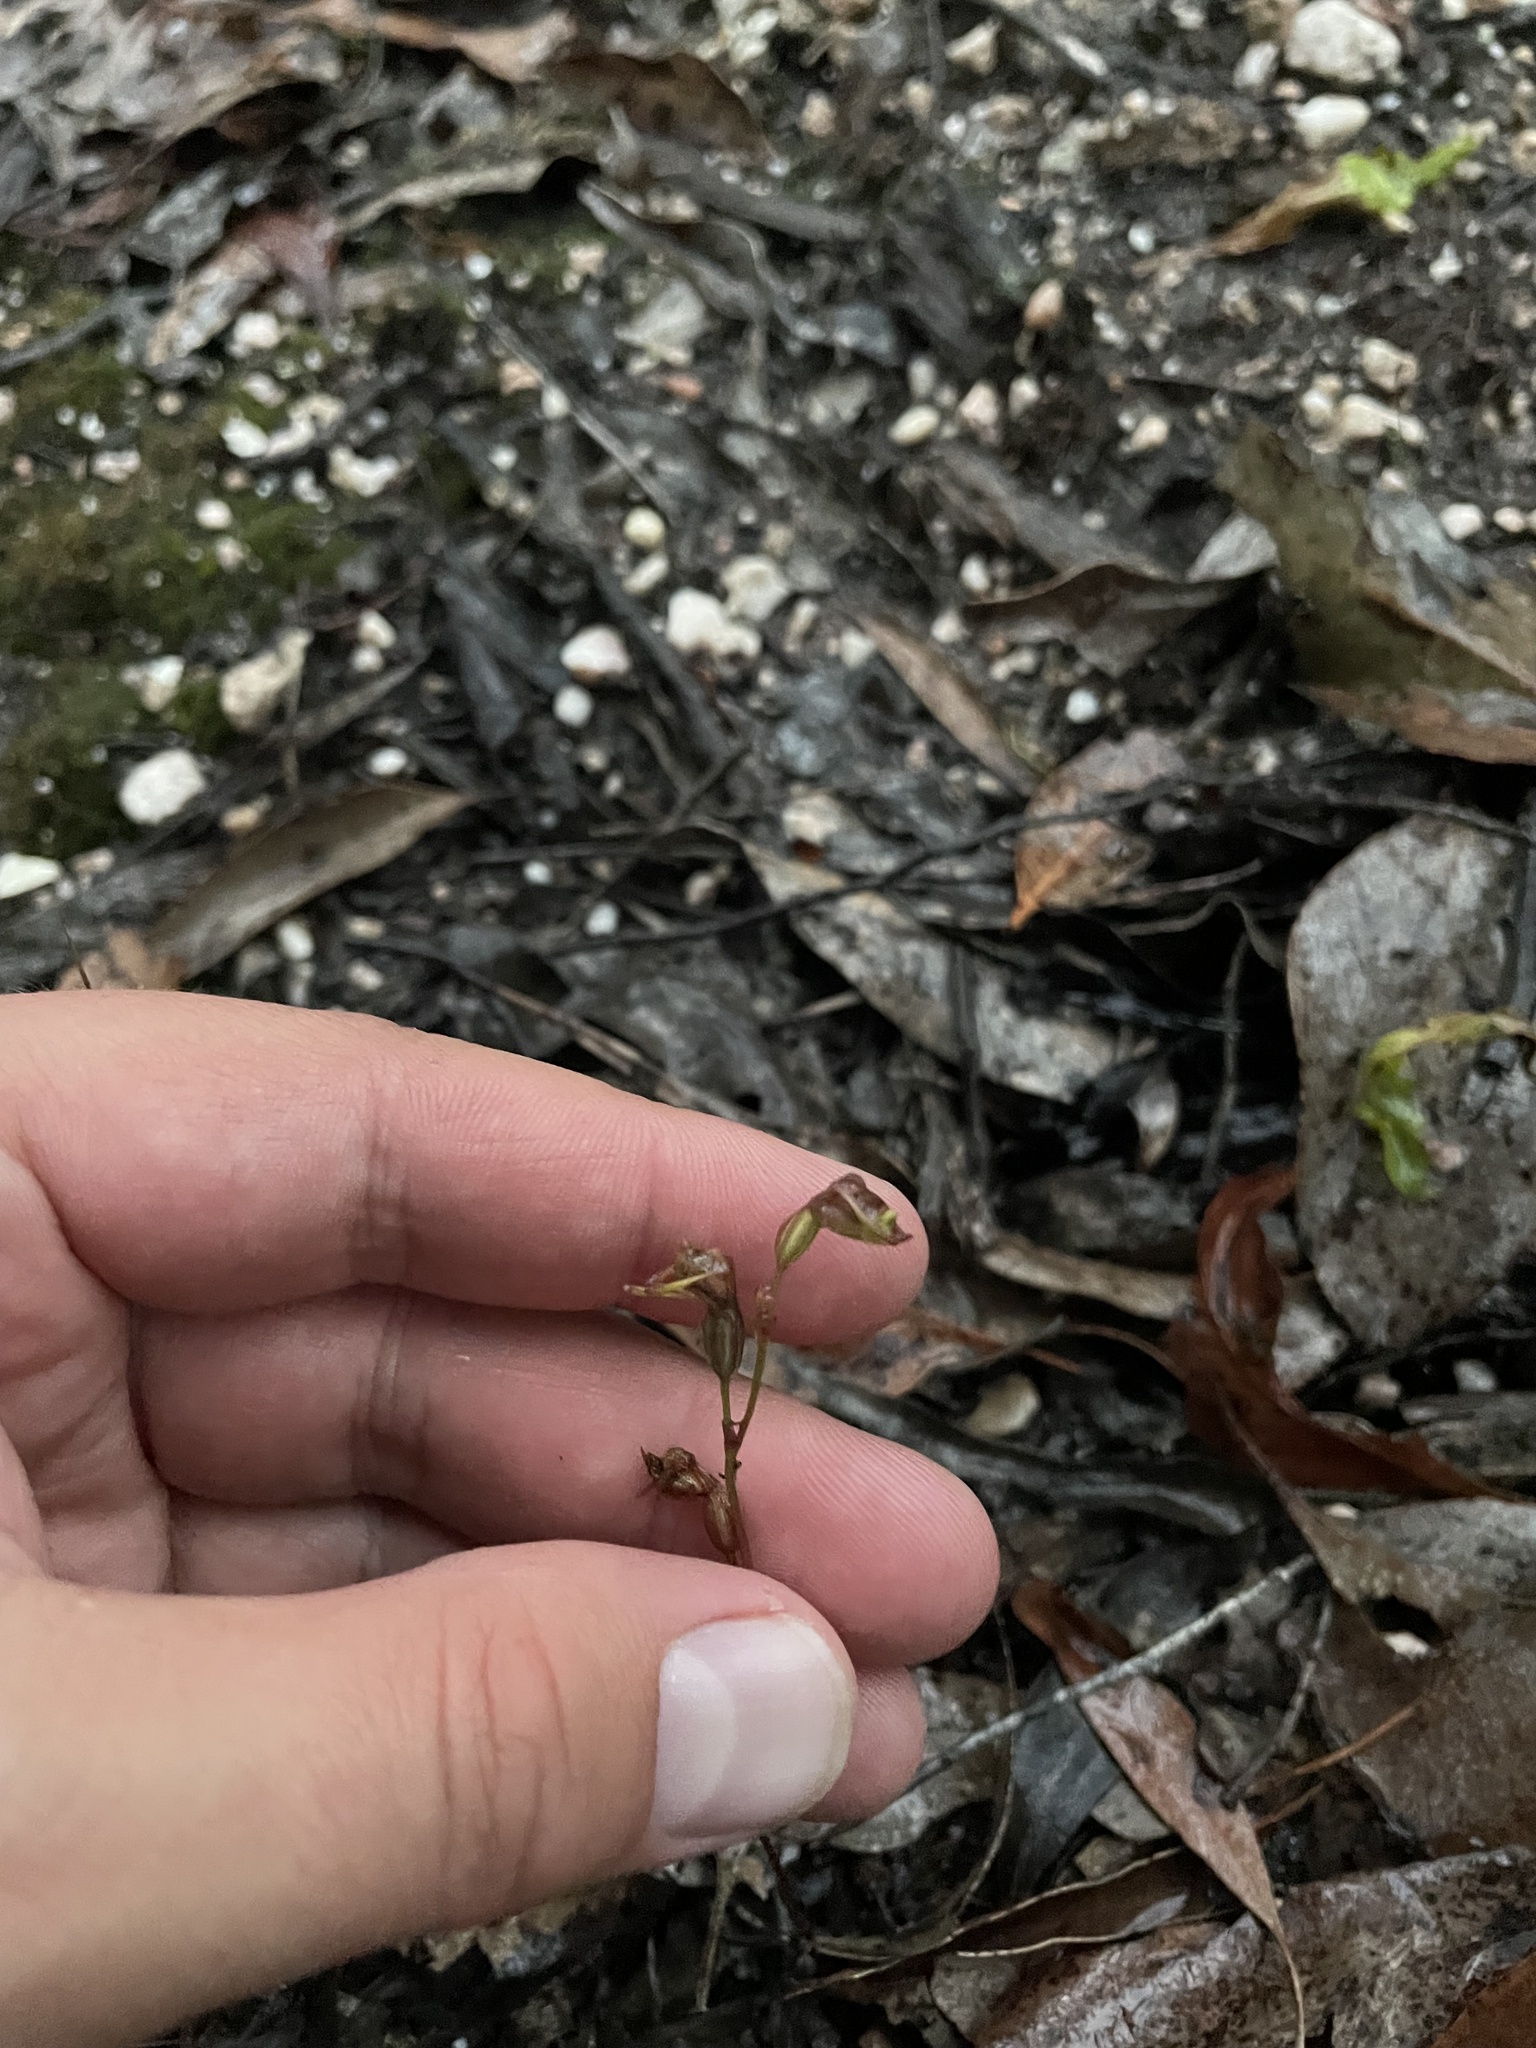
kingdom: Plantae
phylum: Tracheophyta
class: Liliopsida
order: Asparagales
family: Orchidaceae
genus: Caleana
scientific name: Caleana minor
